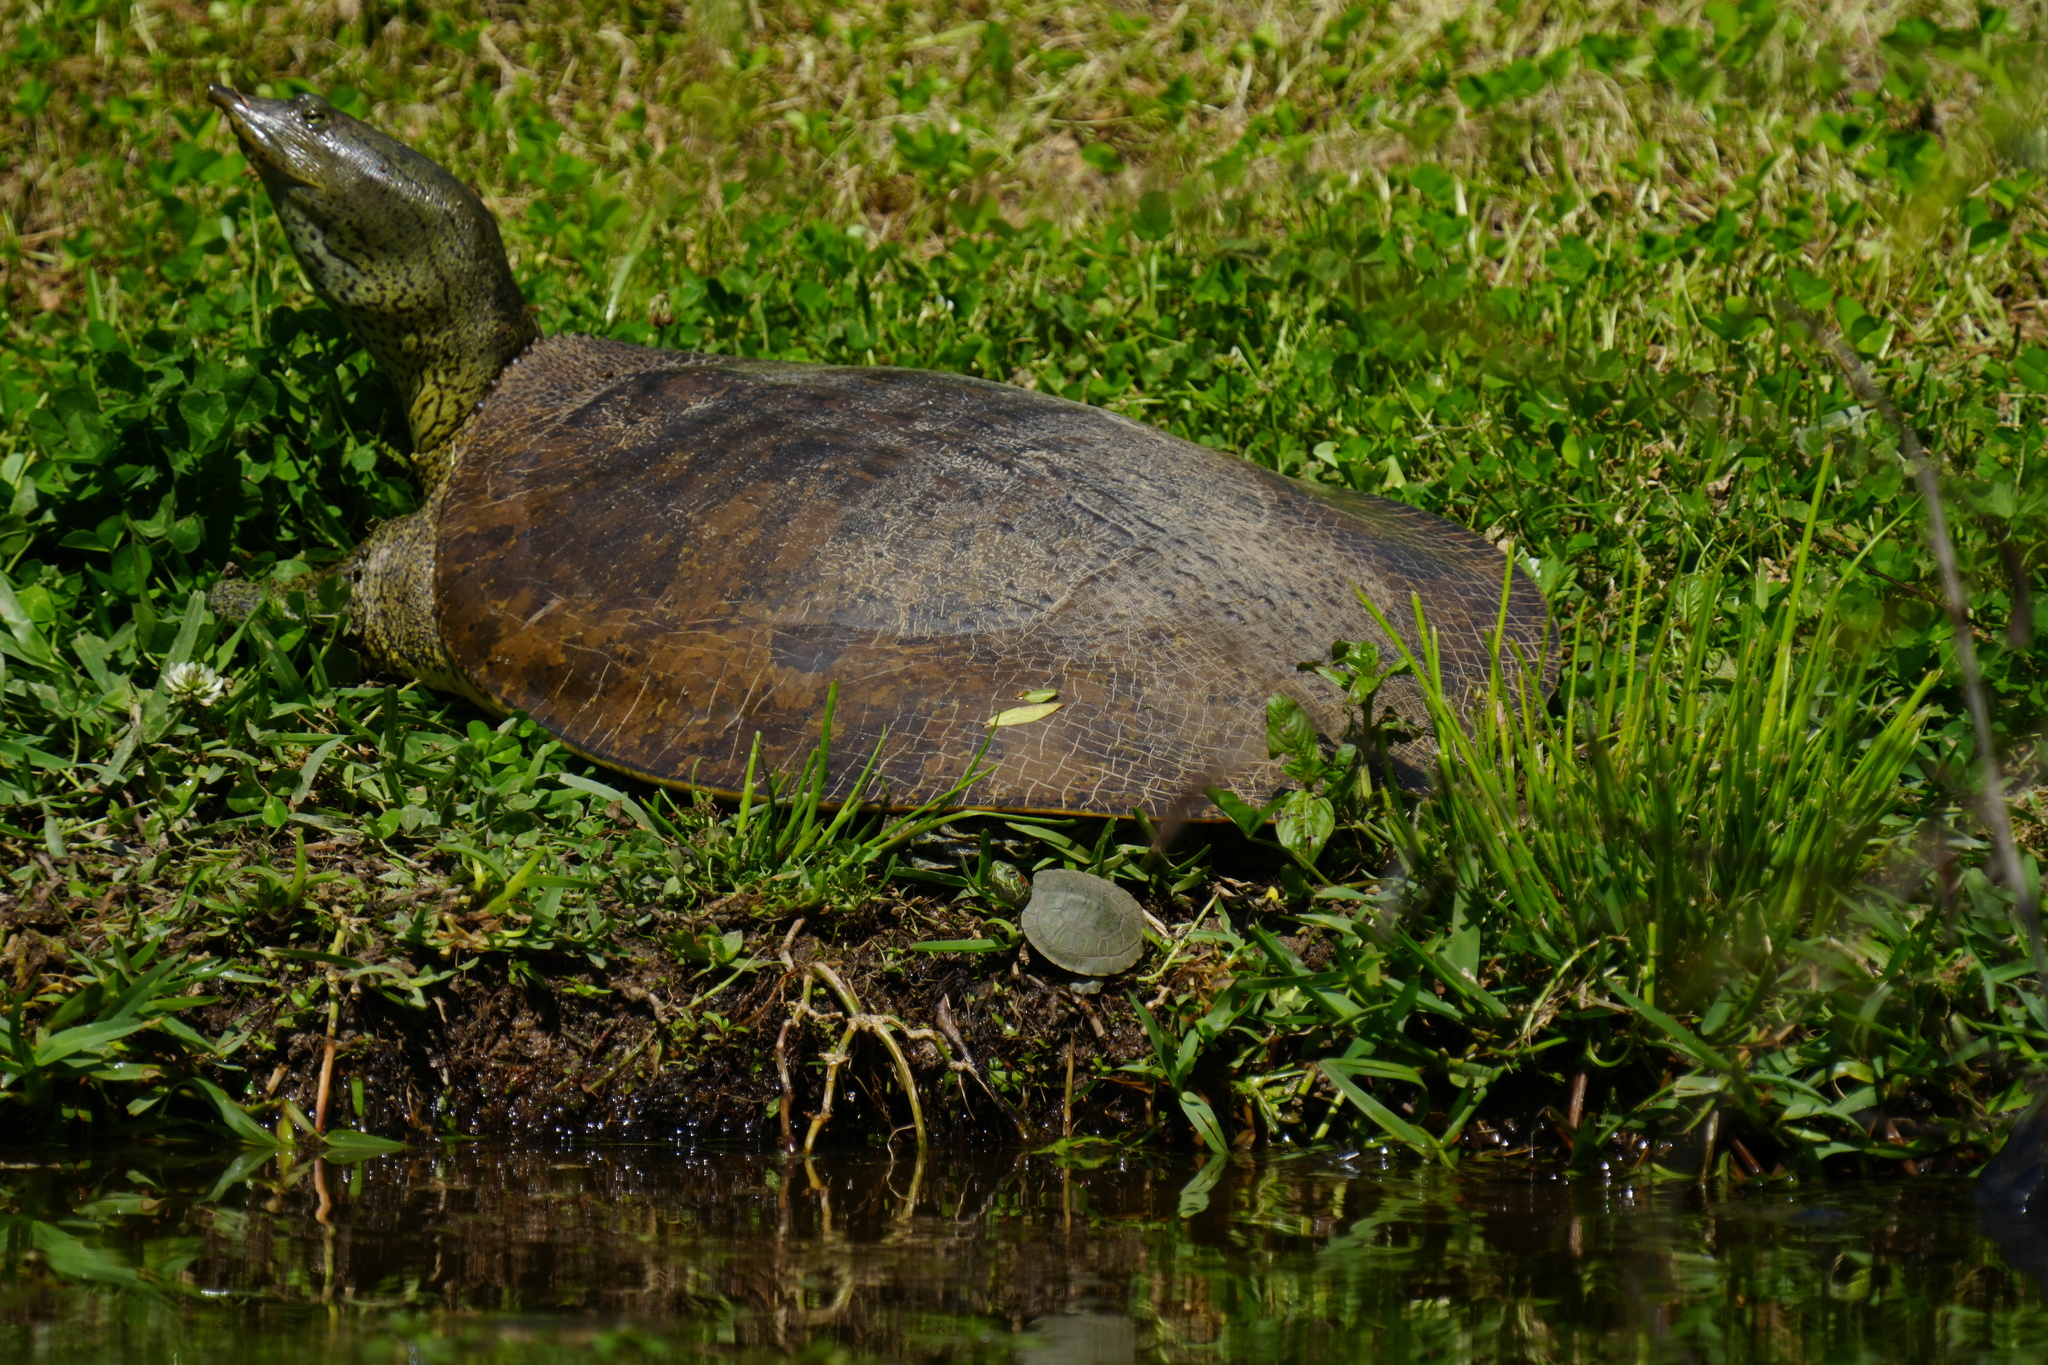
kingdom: Animalia
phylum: Chordata
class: Testudines
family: Trionychidae
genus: Apalone
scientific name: Apalone spinifera
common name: Spiny softshell turtle
